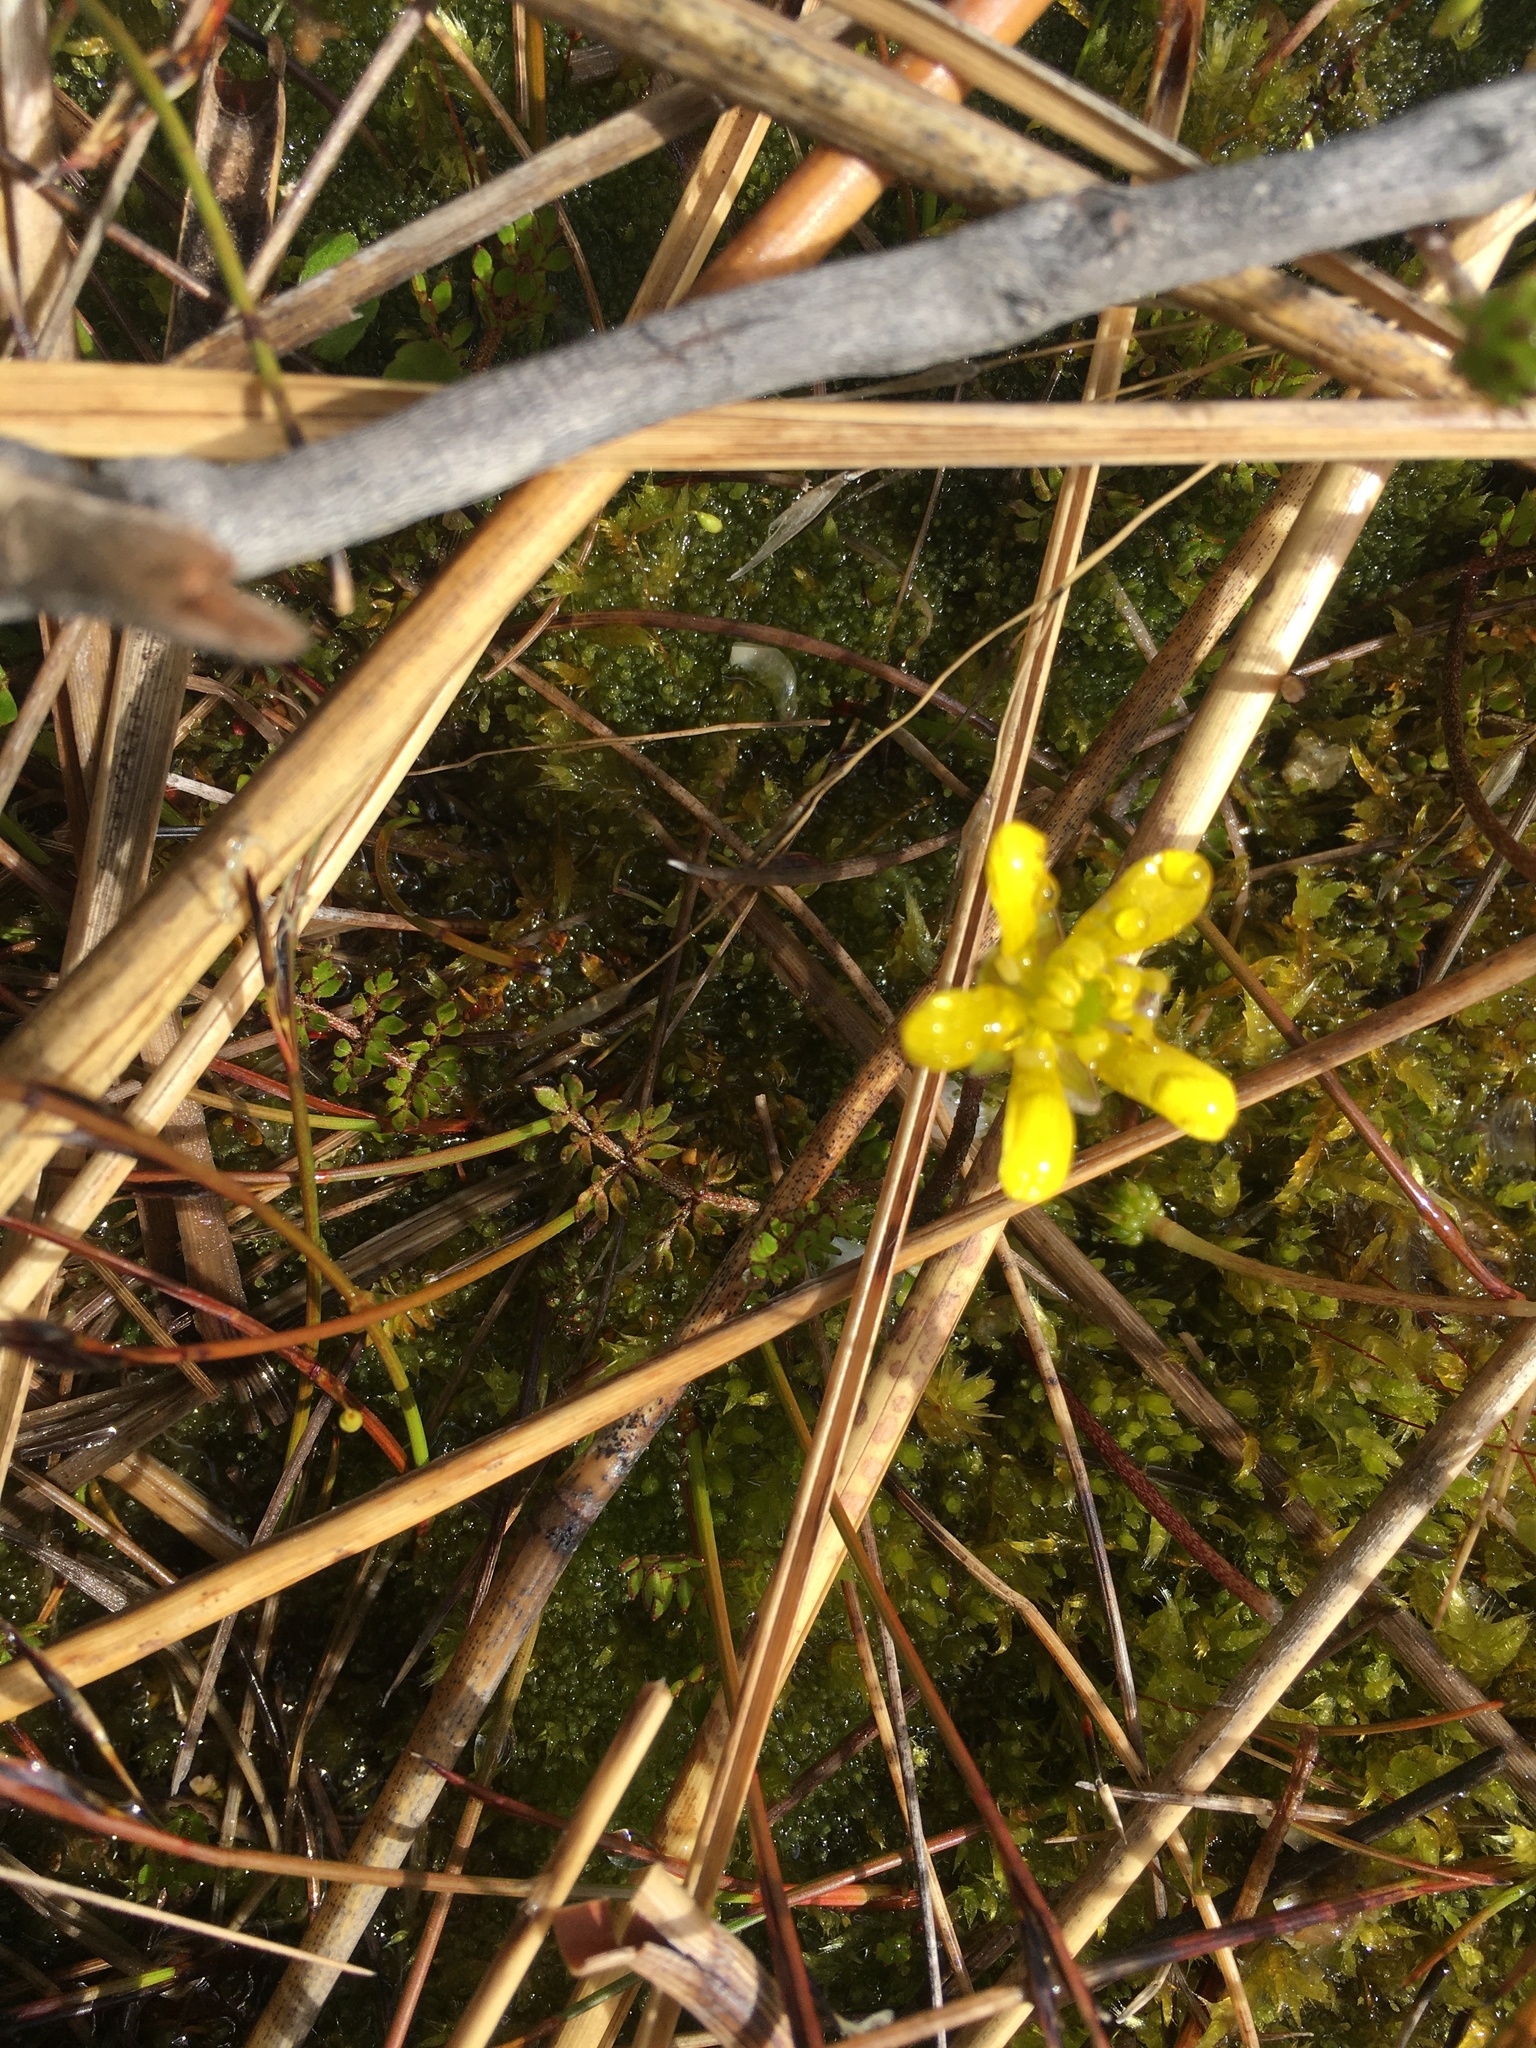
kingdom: Plantae
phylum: Tracheophyta
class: Magnoliopsida
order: Ranunculales
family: Ranunculaceae
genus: Ranunculus
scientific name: Ranunculus gracilipes
